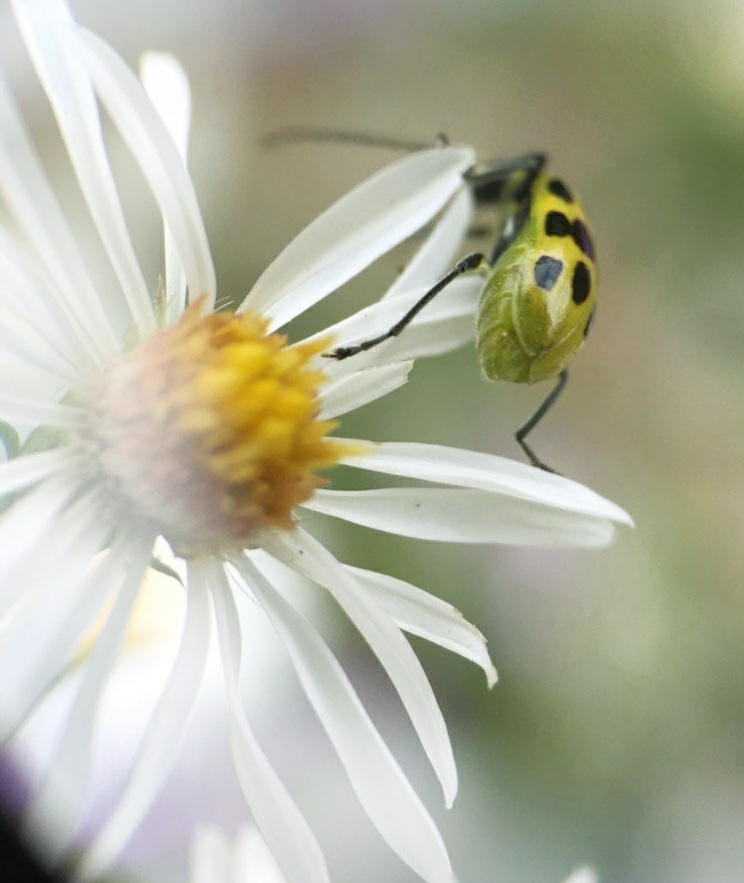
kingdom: Animalia
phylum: Arthropoda
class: Insecta
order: Coleoptera
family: Chrysomelidae
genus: Diabrotica
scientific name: Diabrotica undecimpunctata
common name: Spotted cucumber beetle
